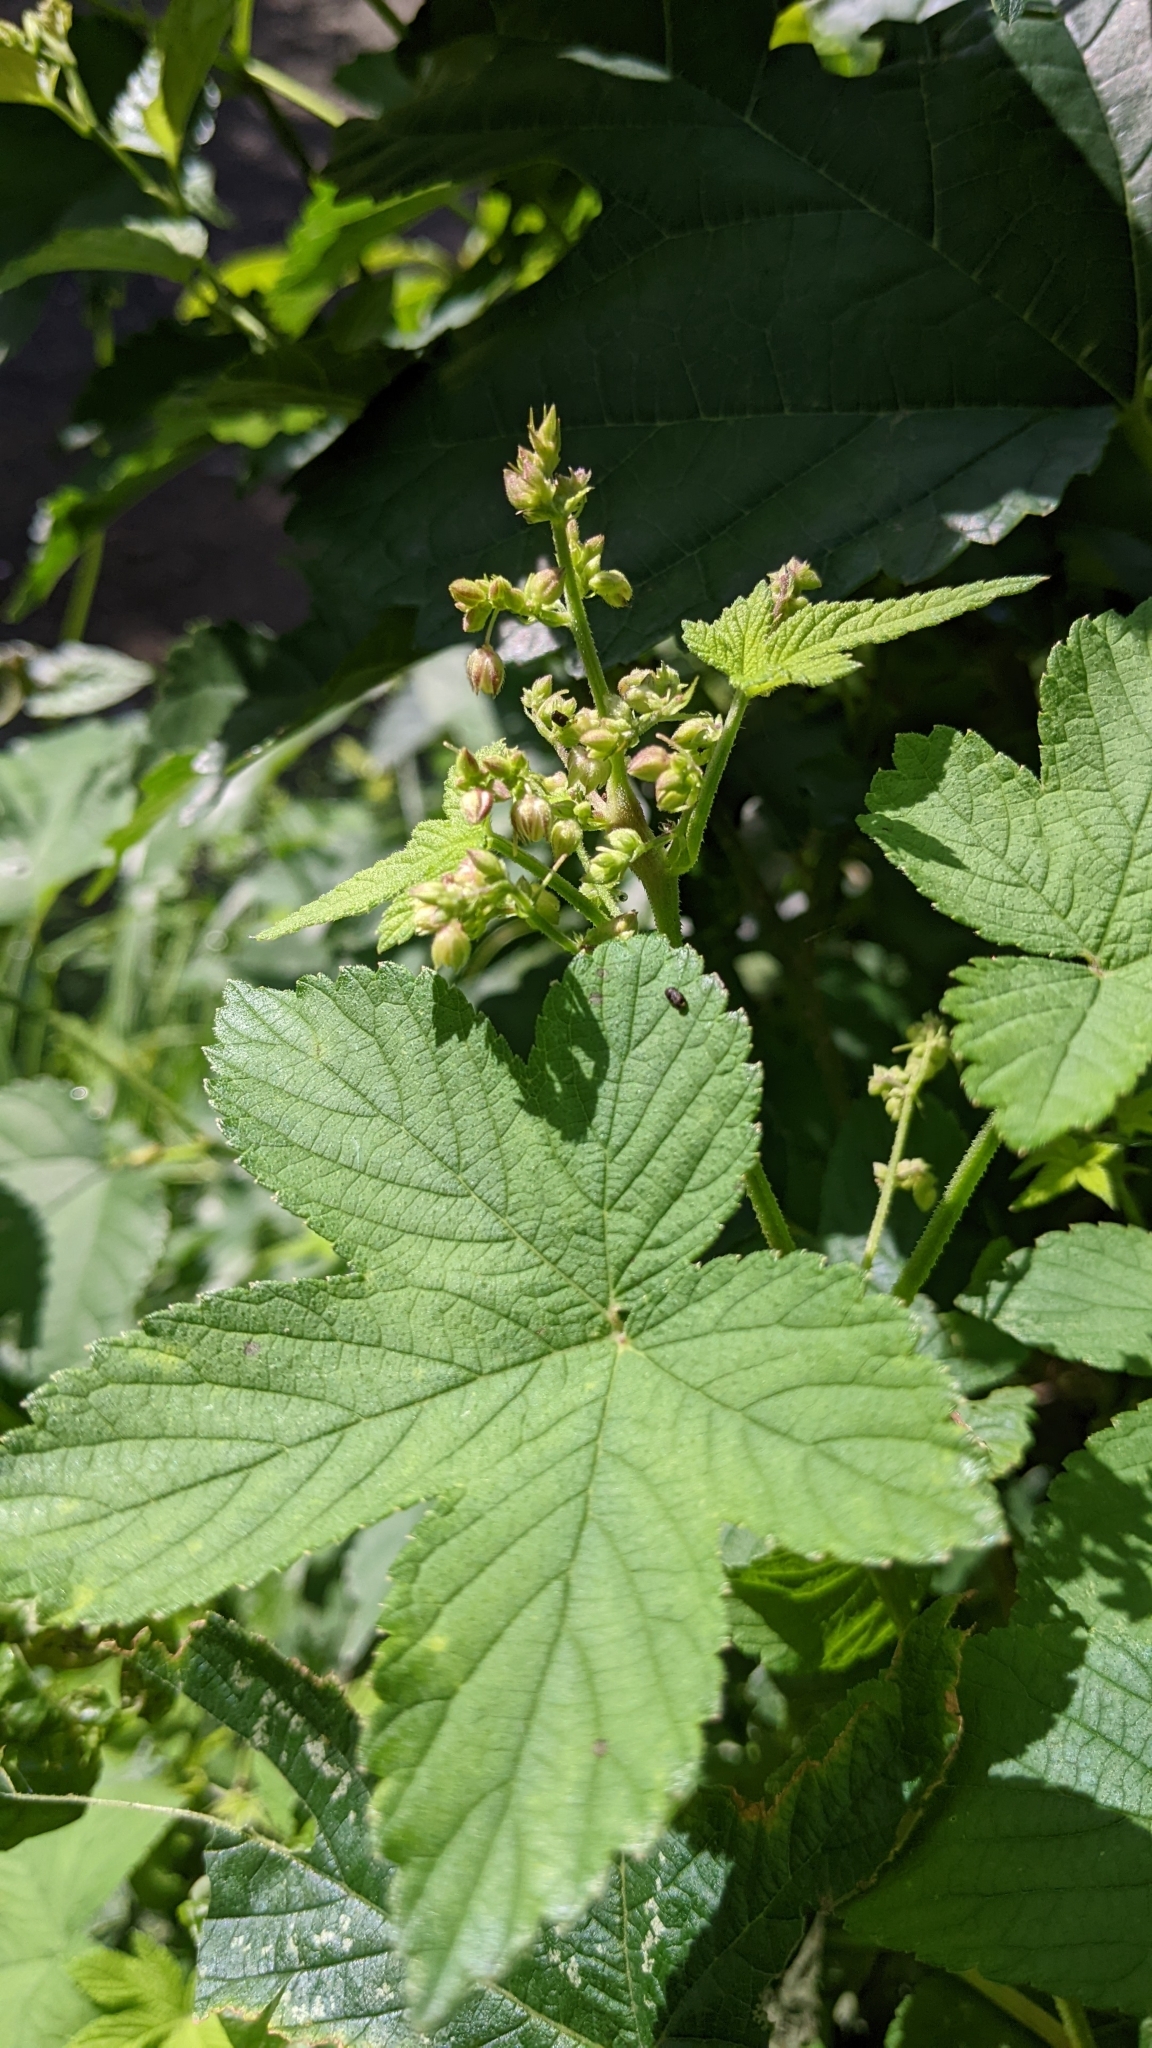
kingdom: Plantae
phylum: Tracheophyta
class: Magnoliopsida
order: Rosales
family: Cannabaceae
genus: Humulus
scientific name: Humulus scandens
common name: Japanese hop
